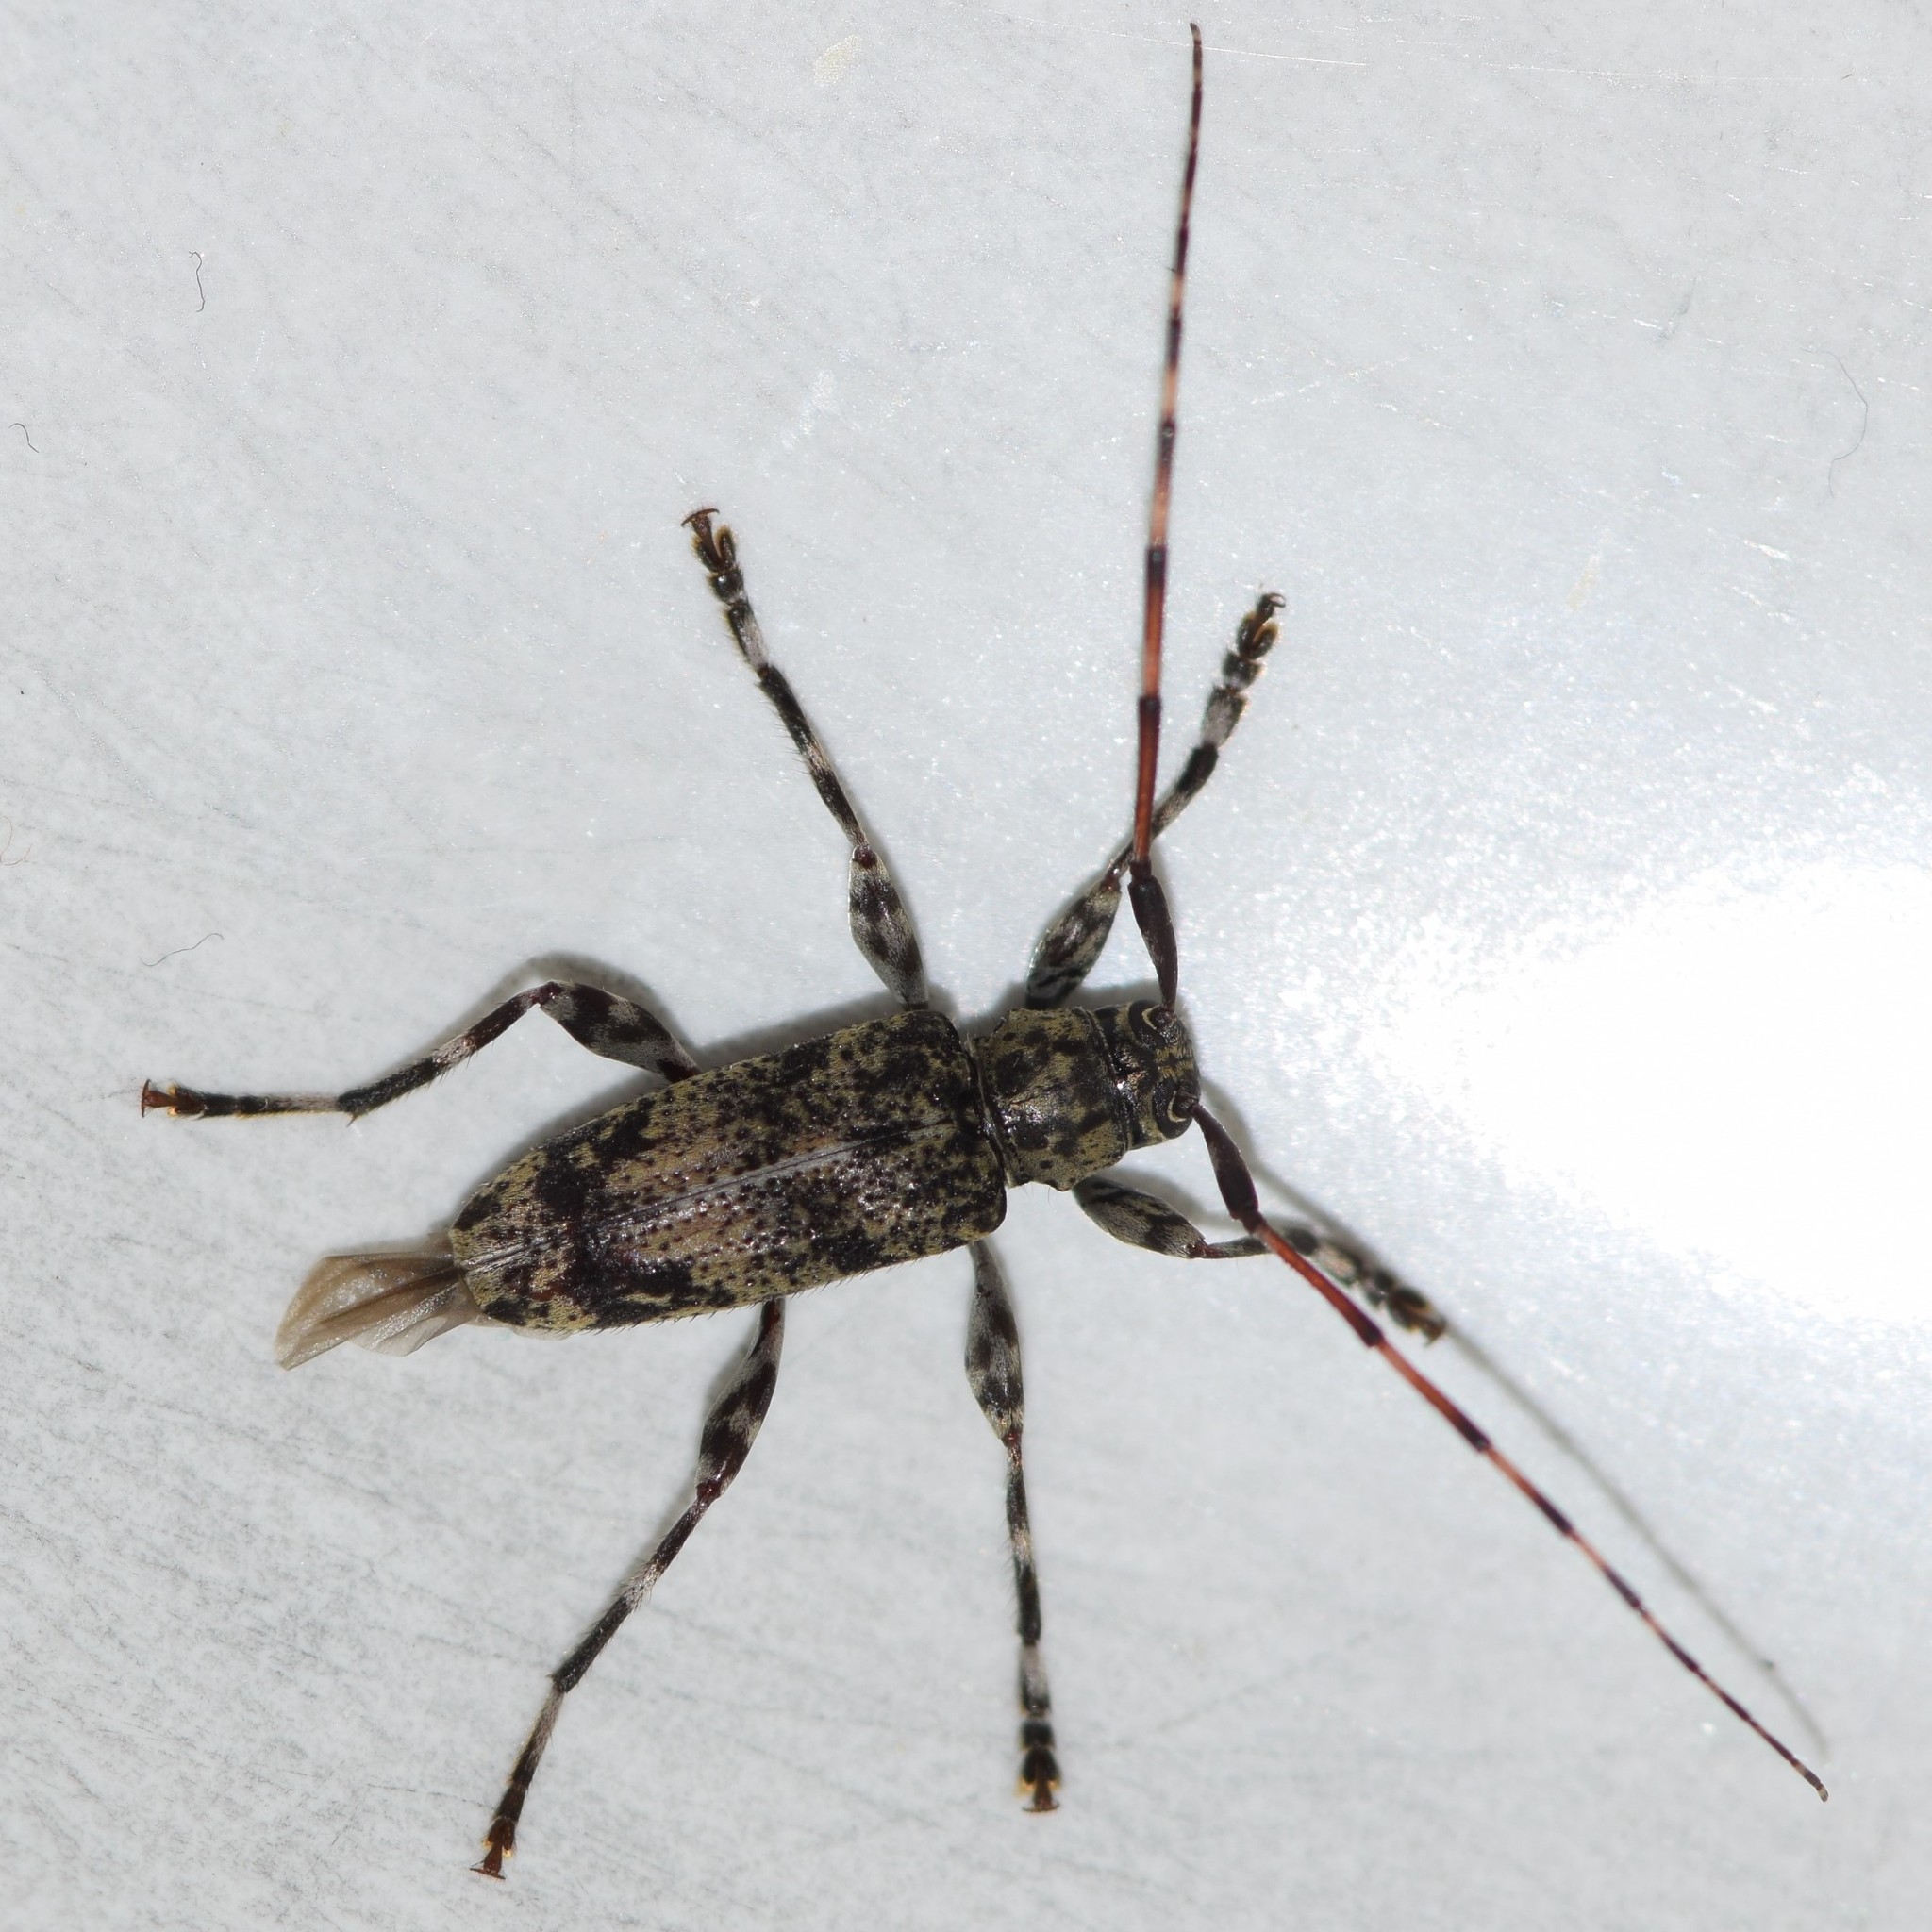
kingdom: Animalia
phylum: Arthropoda
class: Insecta
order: Coleoptera
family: Cerambycidae
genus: Graphisurus
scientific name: Graphisurus fasciatus
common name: Banded graphisurus
